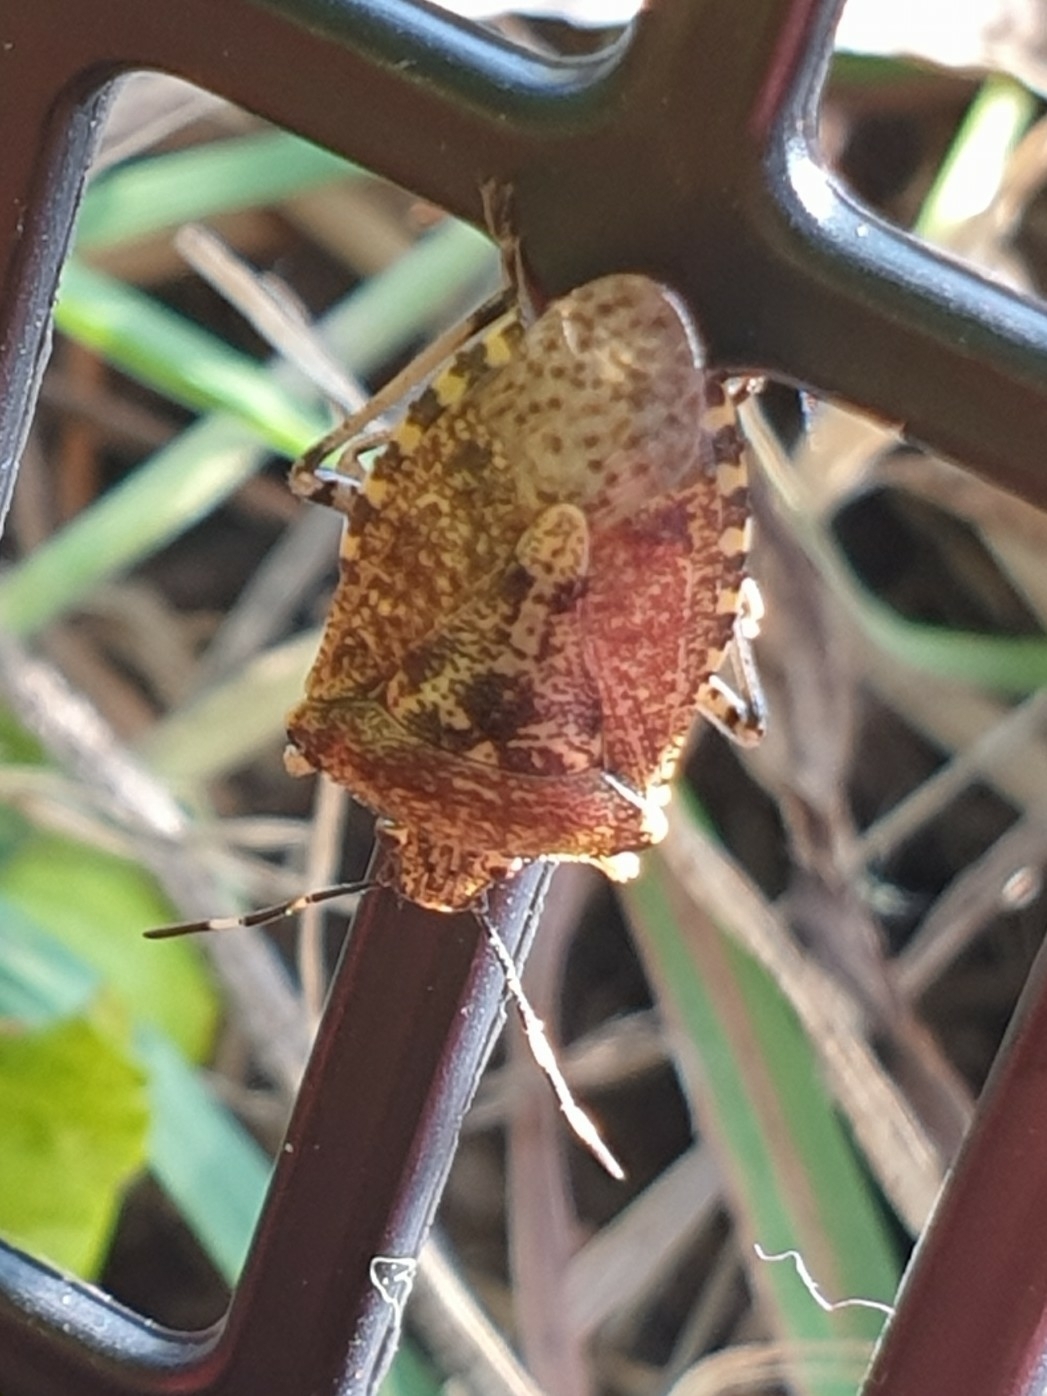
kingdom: Animalia
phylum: Arthropoda
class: Insecta
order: Hemiptera
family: Pentatomidae
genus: Rhaphigaster
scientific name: Rhaphigaster nebulosa
